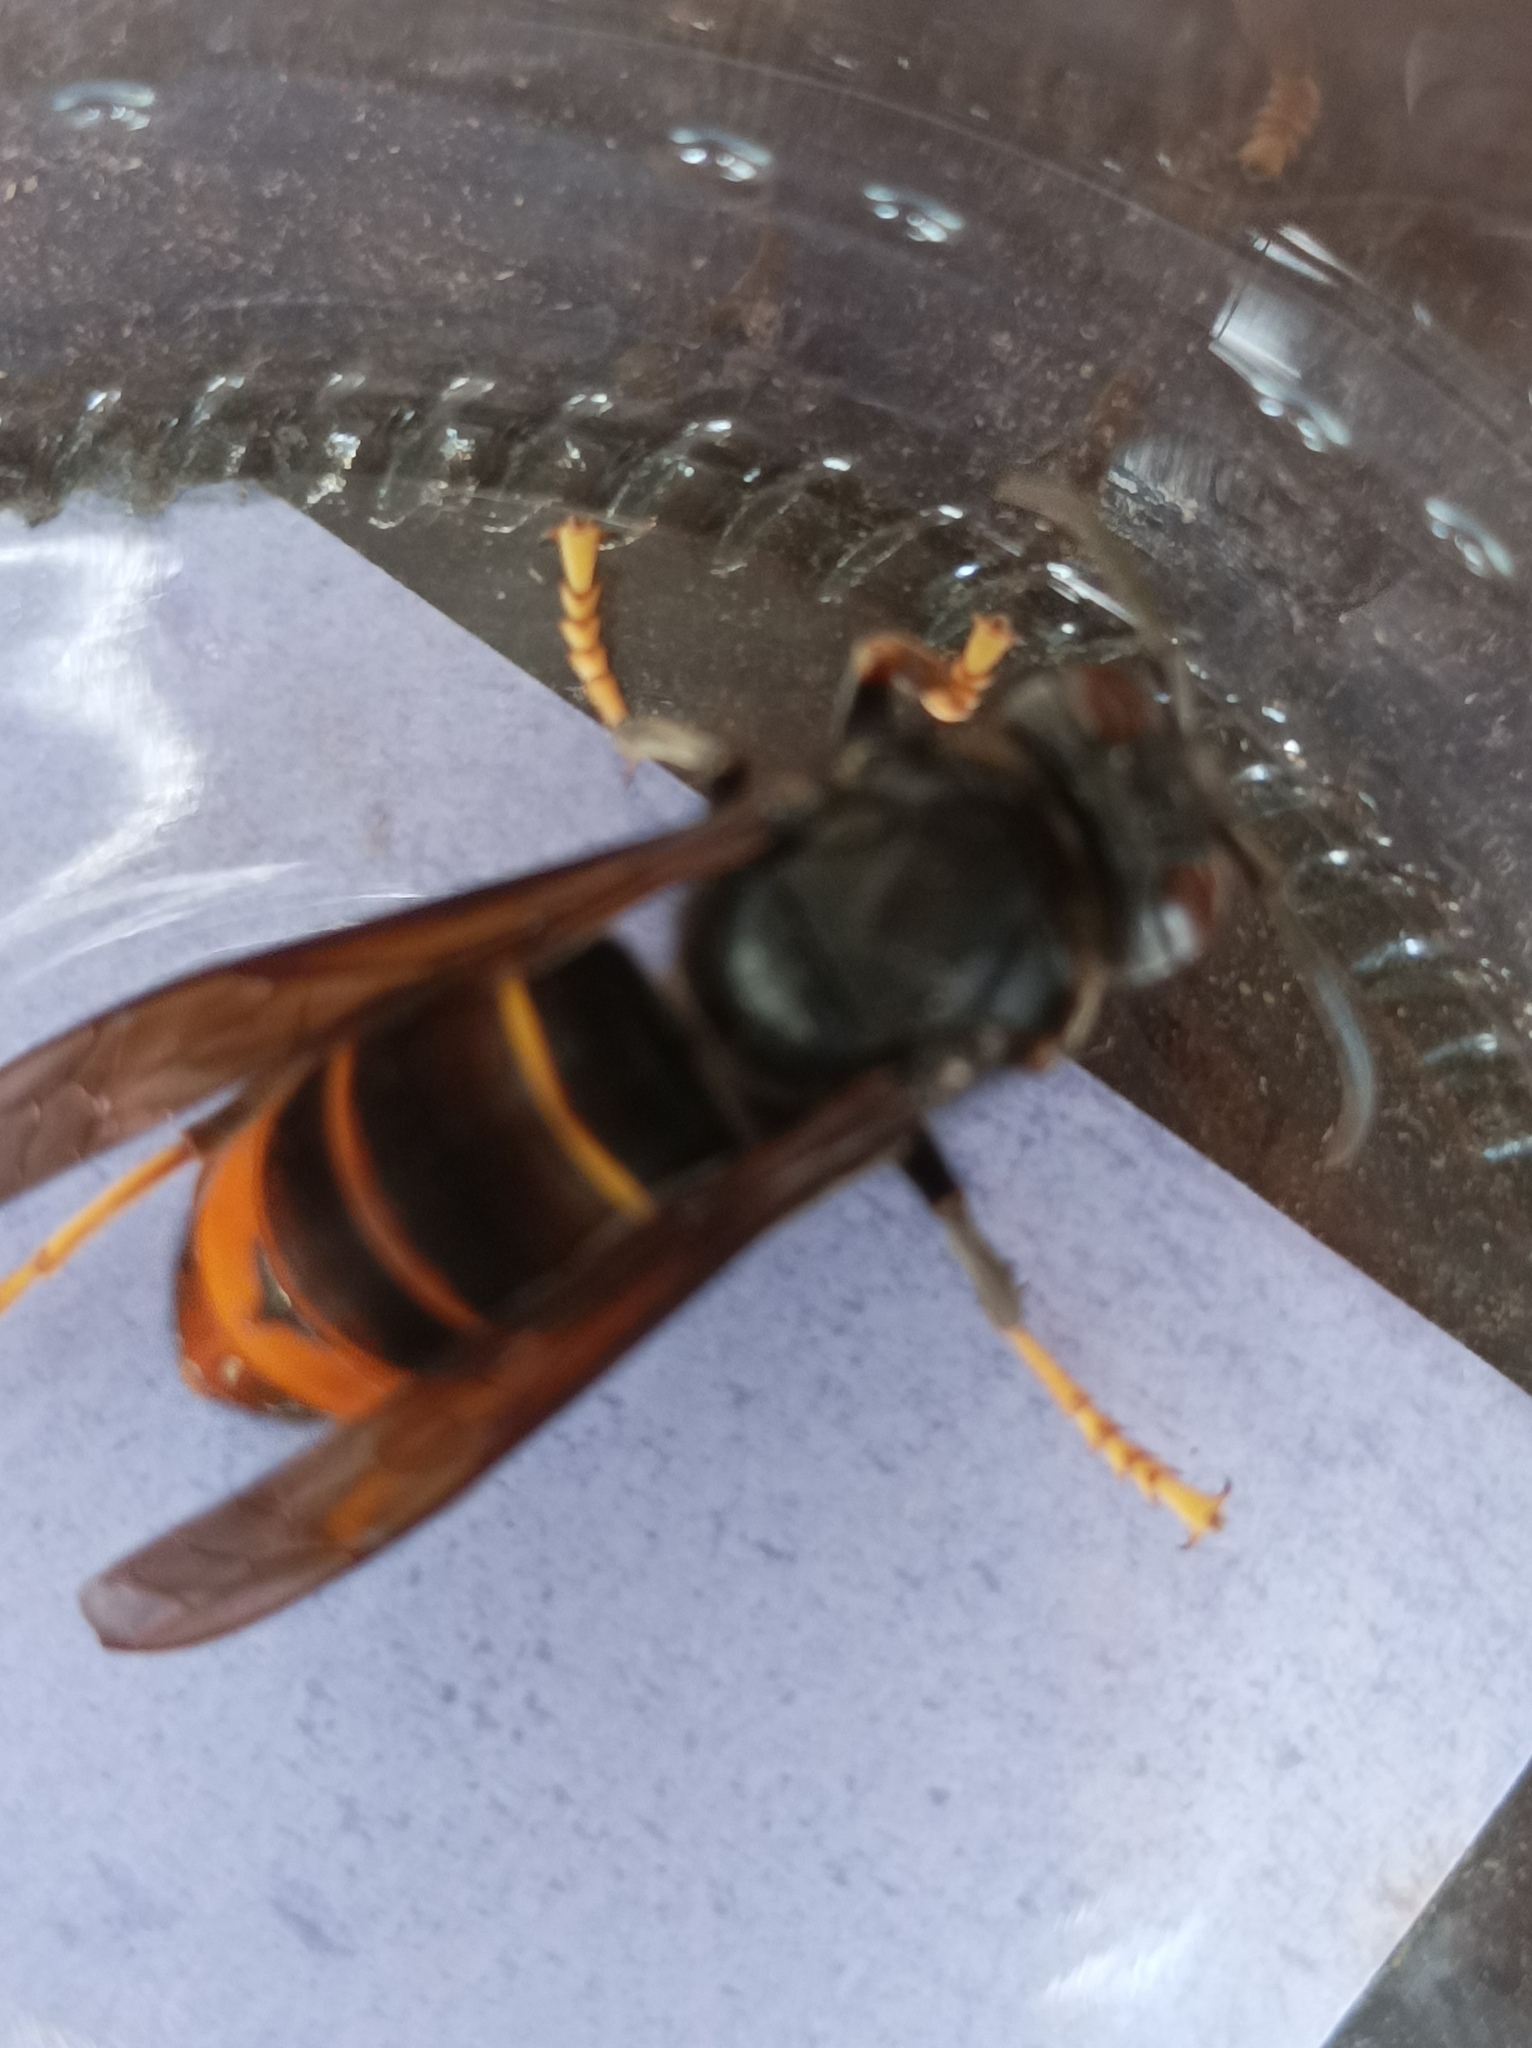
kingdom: Animalia
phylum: Arthropoda
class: Insecta
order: Hymenoptera
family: Vespidae
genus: Vespa
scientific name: Vespa velutina
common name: Asian hornet
